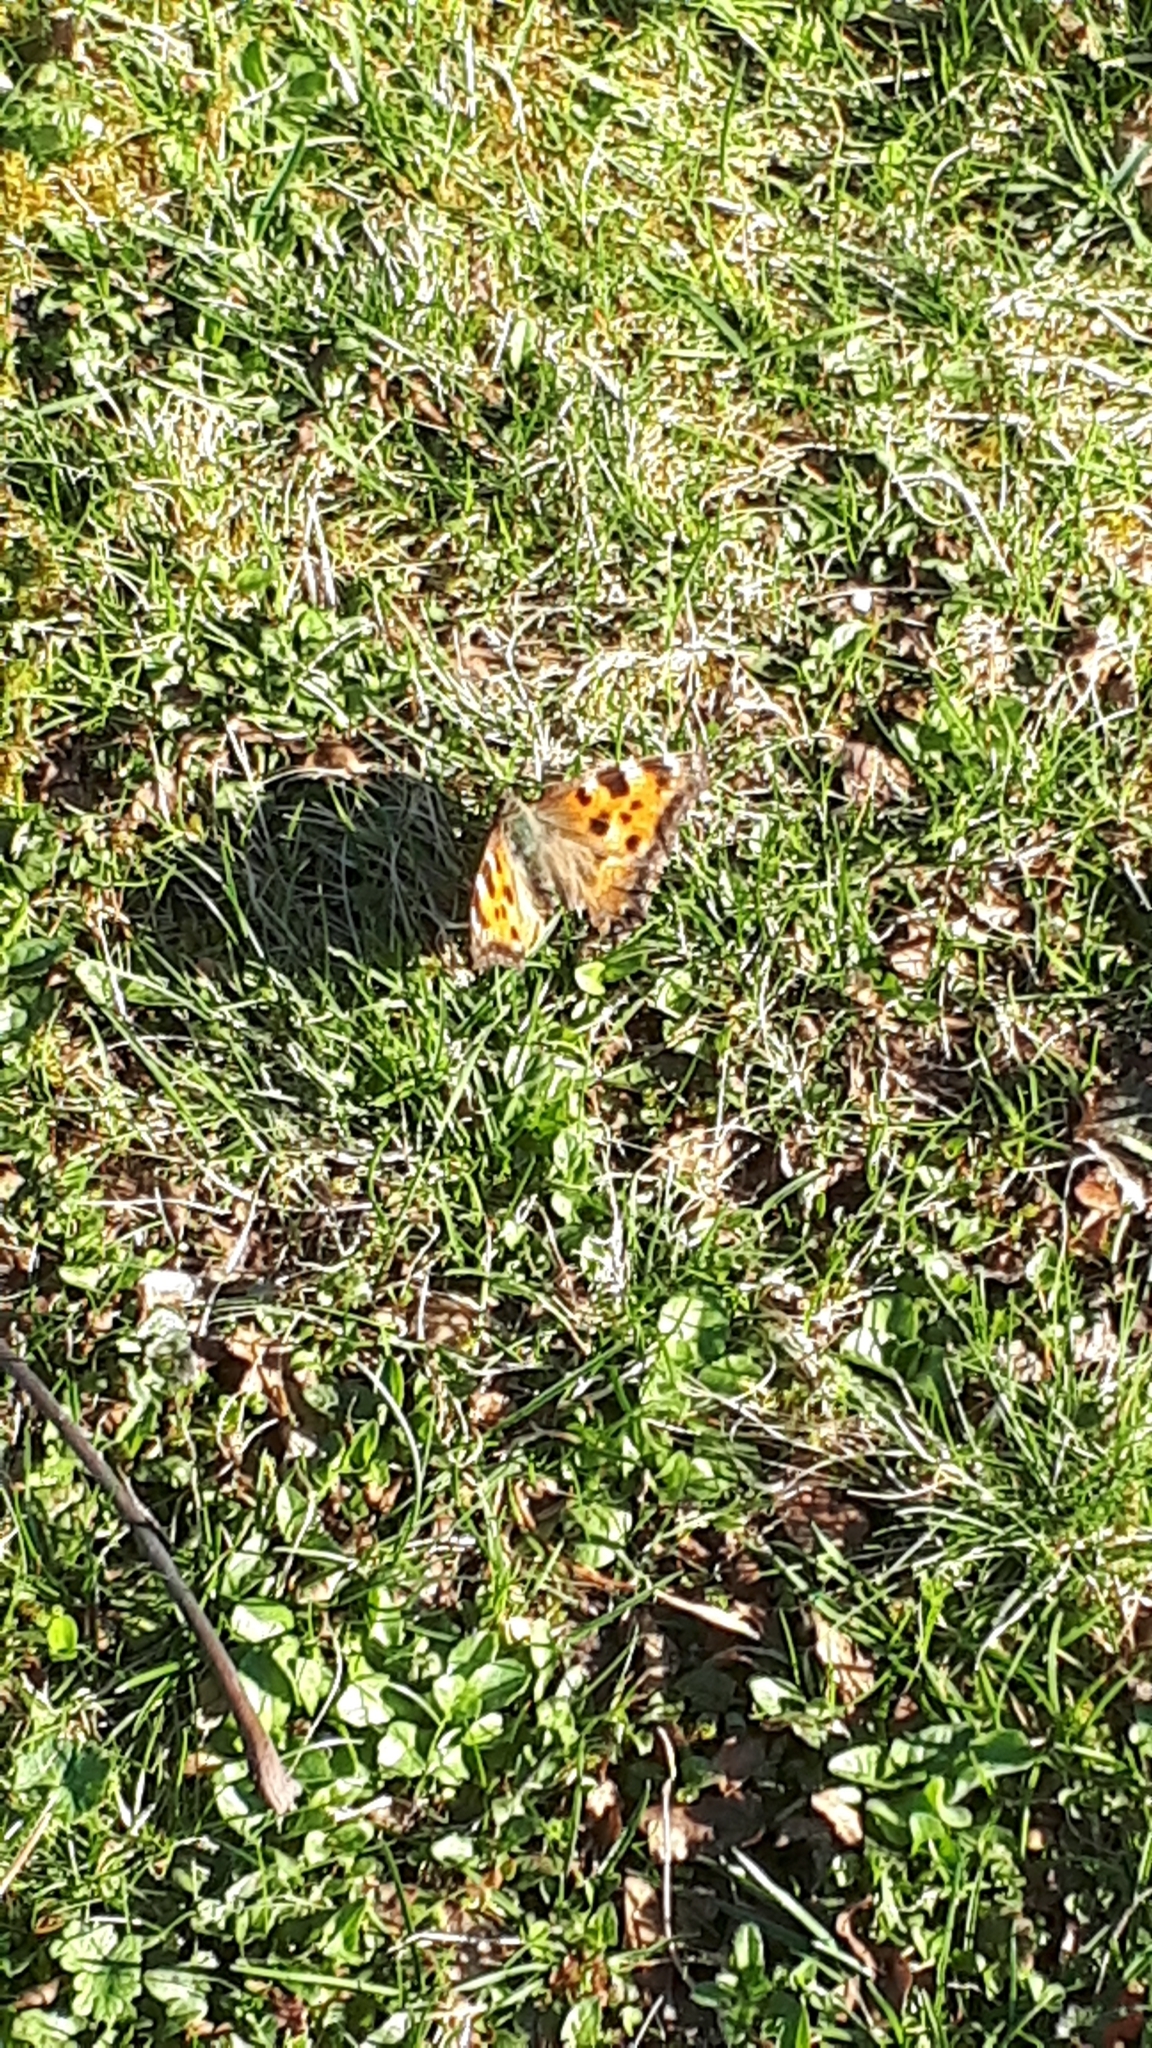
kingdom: Animalia
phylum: Arthropoda
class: Insecta
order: Lepidoptera
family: Nymphalidae
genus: Nymphalis
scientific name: Nymphalis polychloros
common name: Large tortoiseshell
